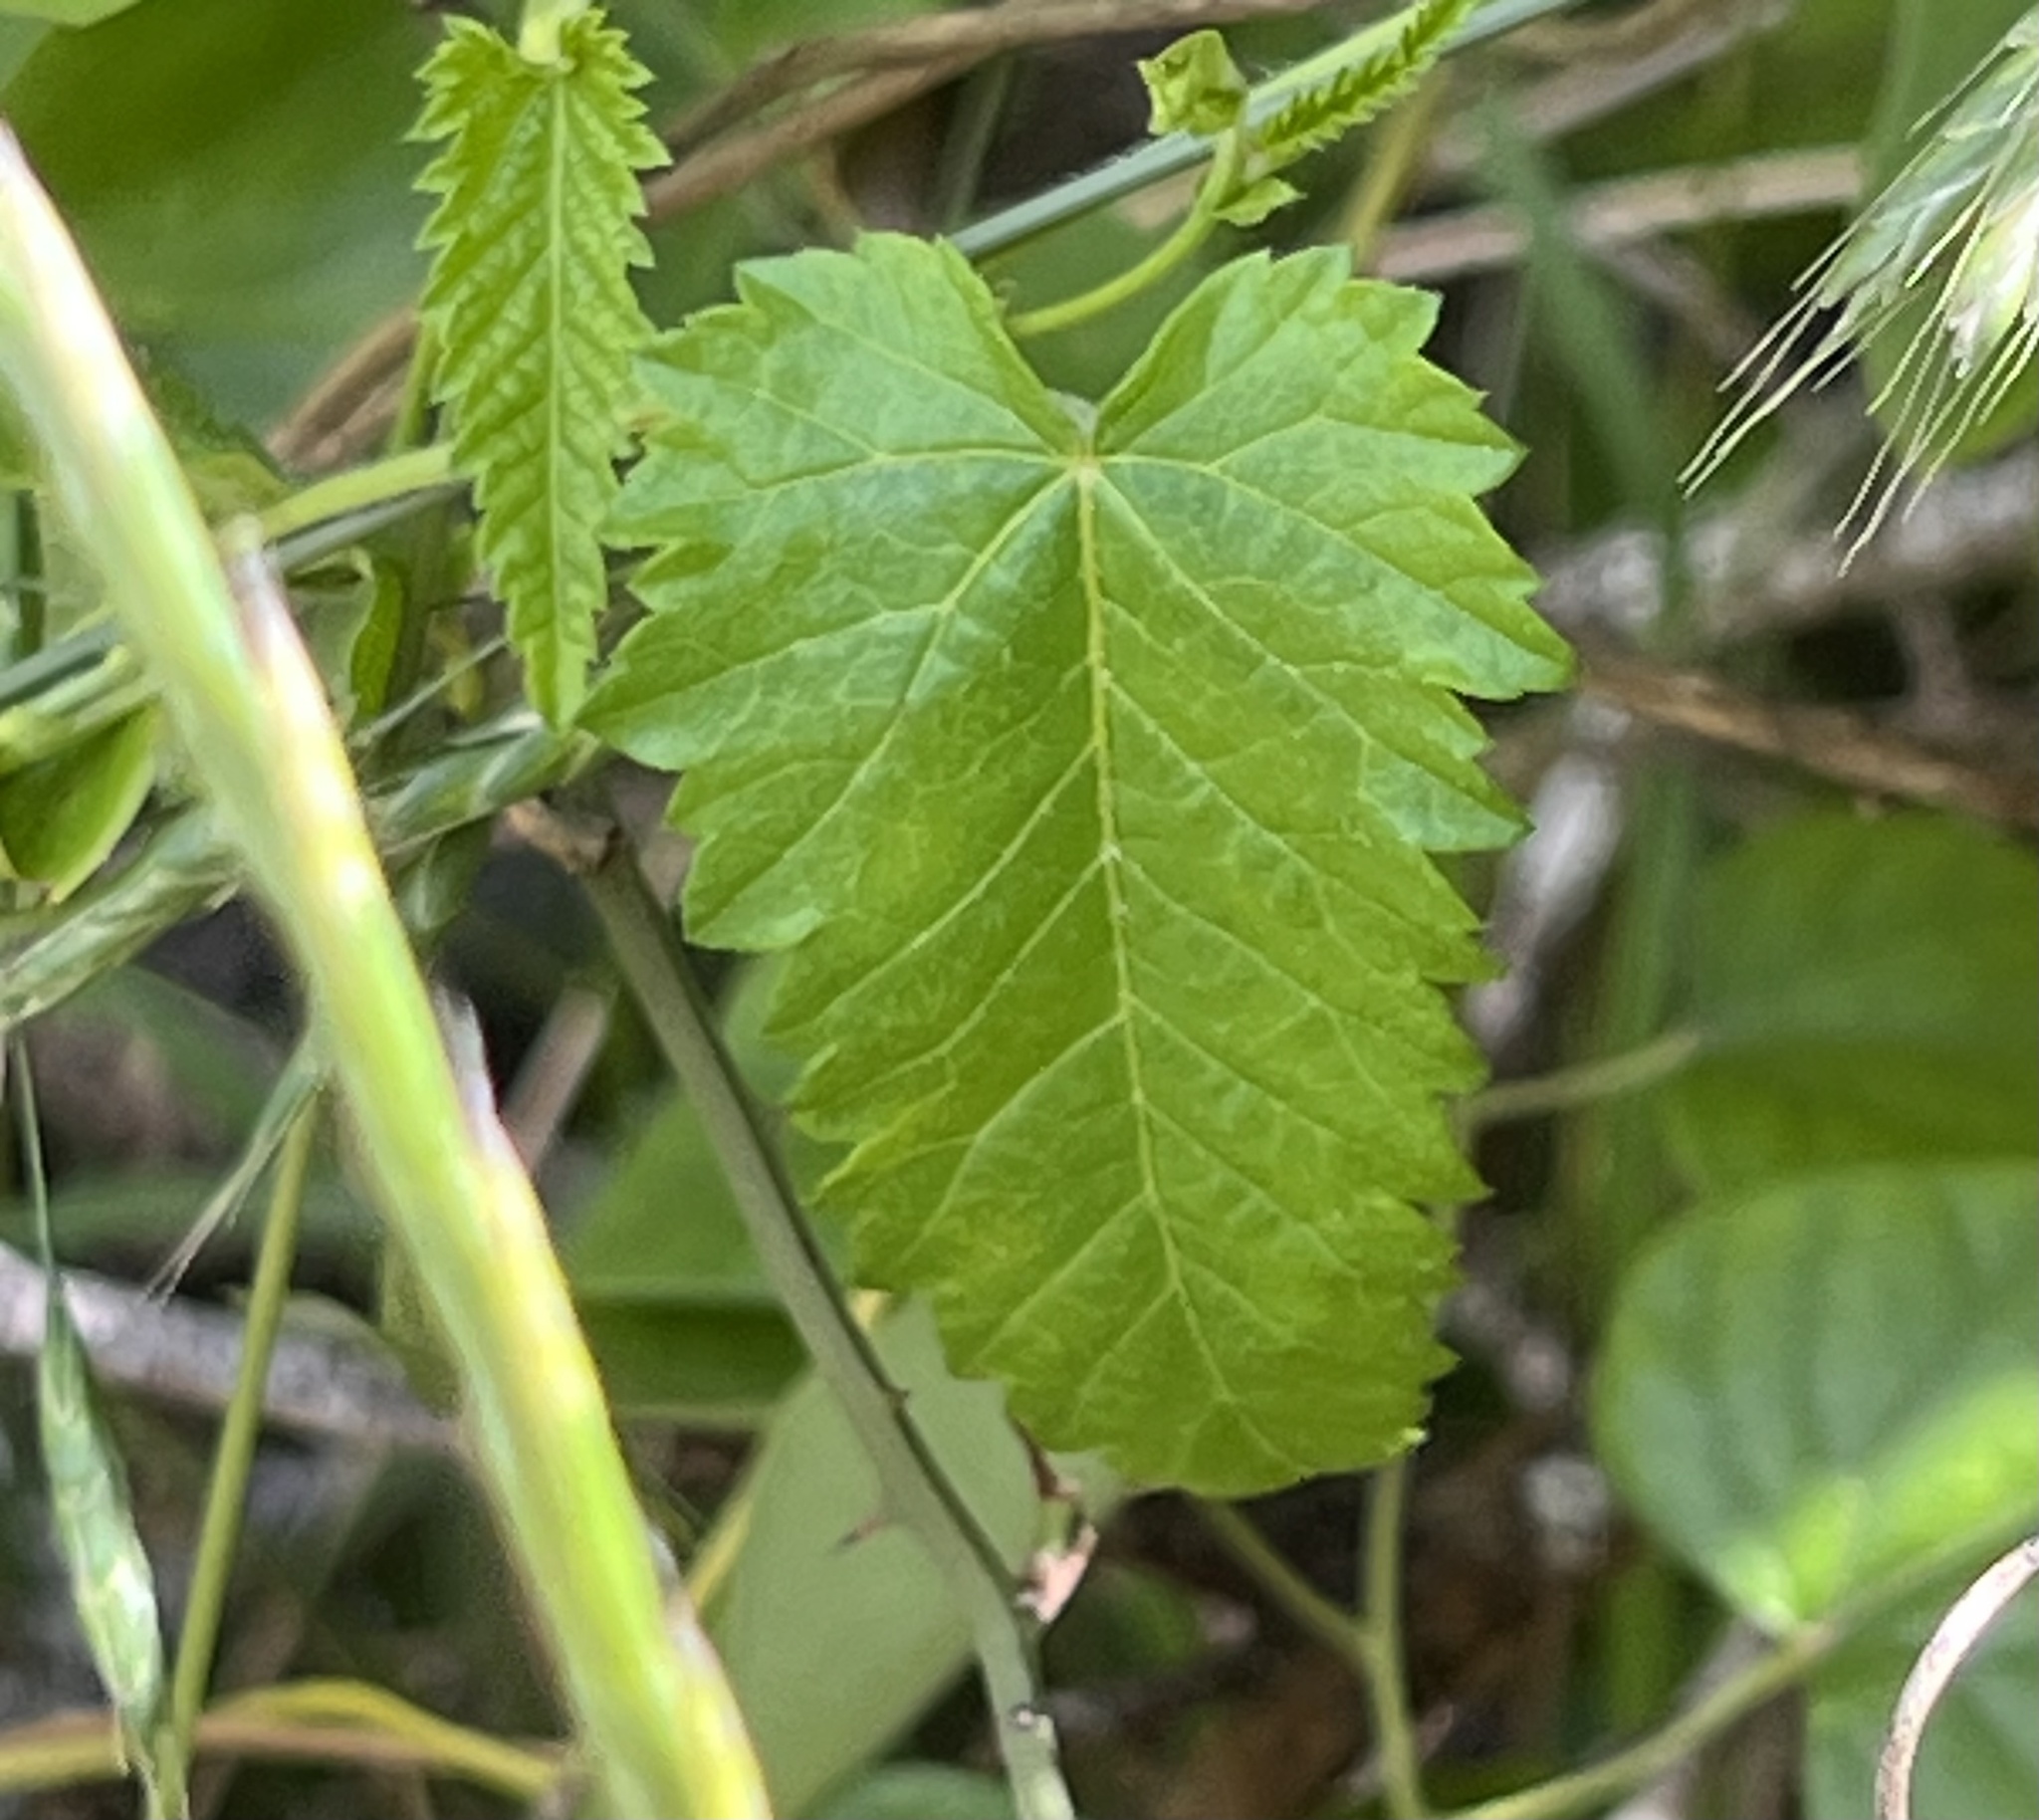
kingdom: Plantae
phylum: Tracheophyta
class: Magnoliopsida
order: Malpighiales
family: Euphorbiaceae
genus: Tragia
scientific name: Tragia urticifolia
